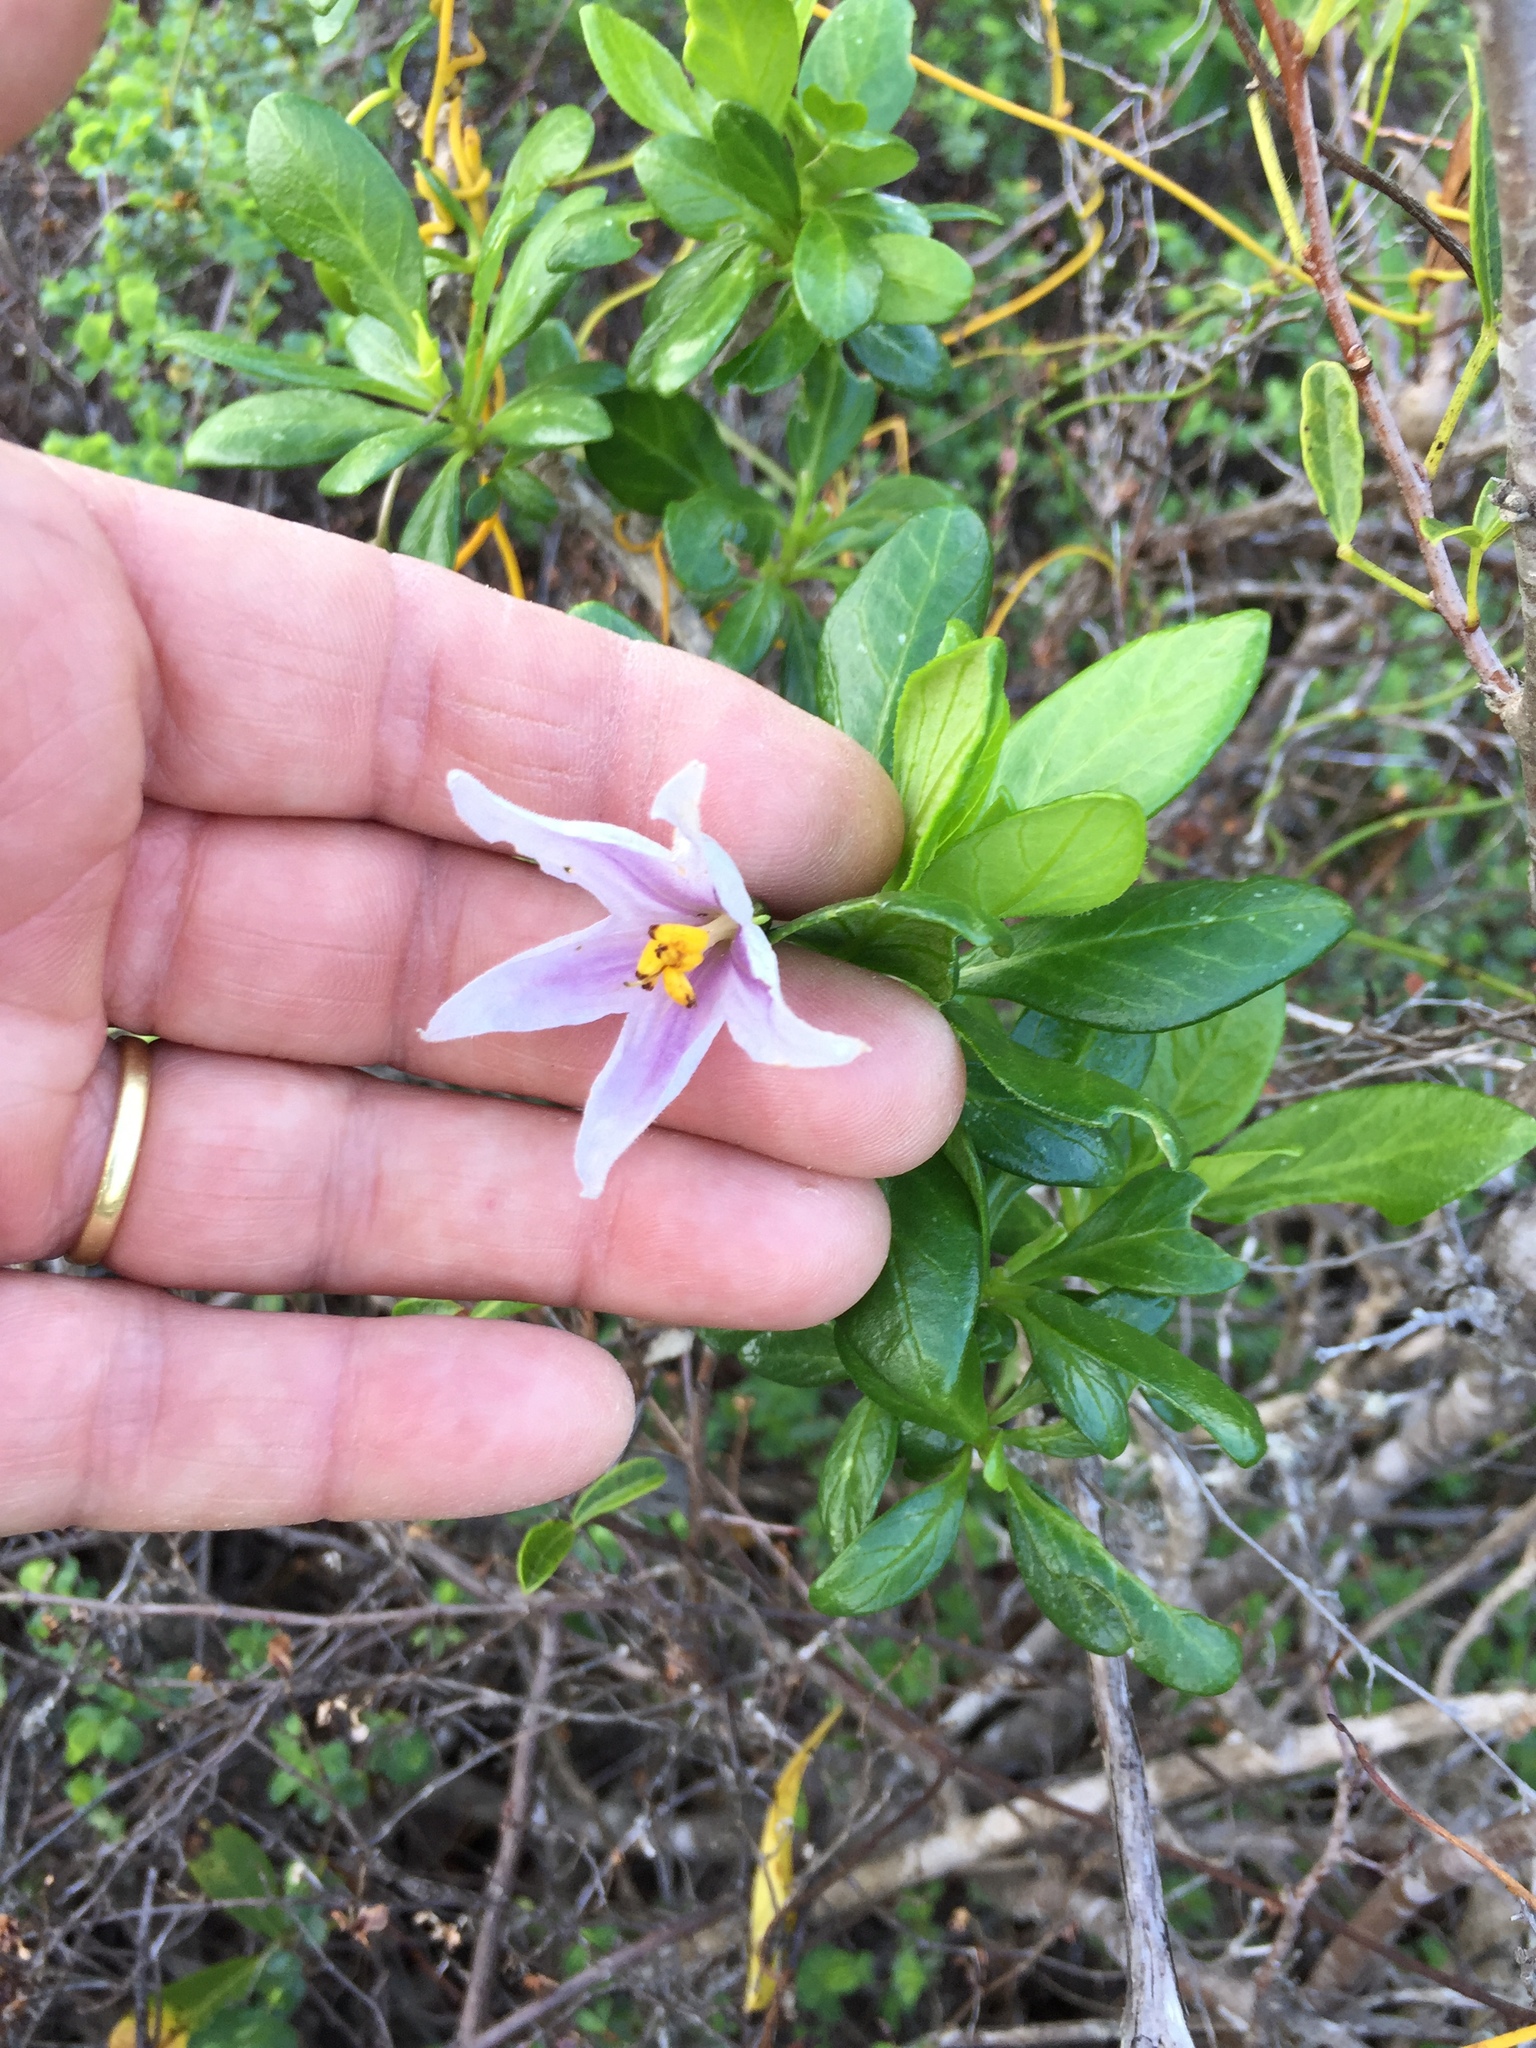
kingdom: Plantae
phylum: Tracheophyta
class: Magnoliopsida
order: Solanales
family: Solanaceae
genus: Solanum
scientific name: Solanum guineense
